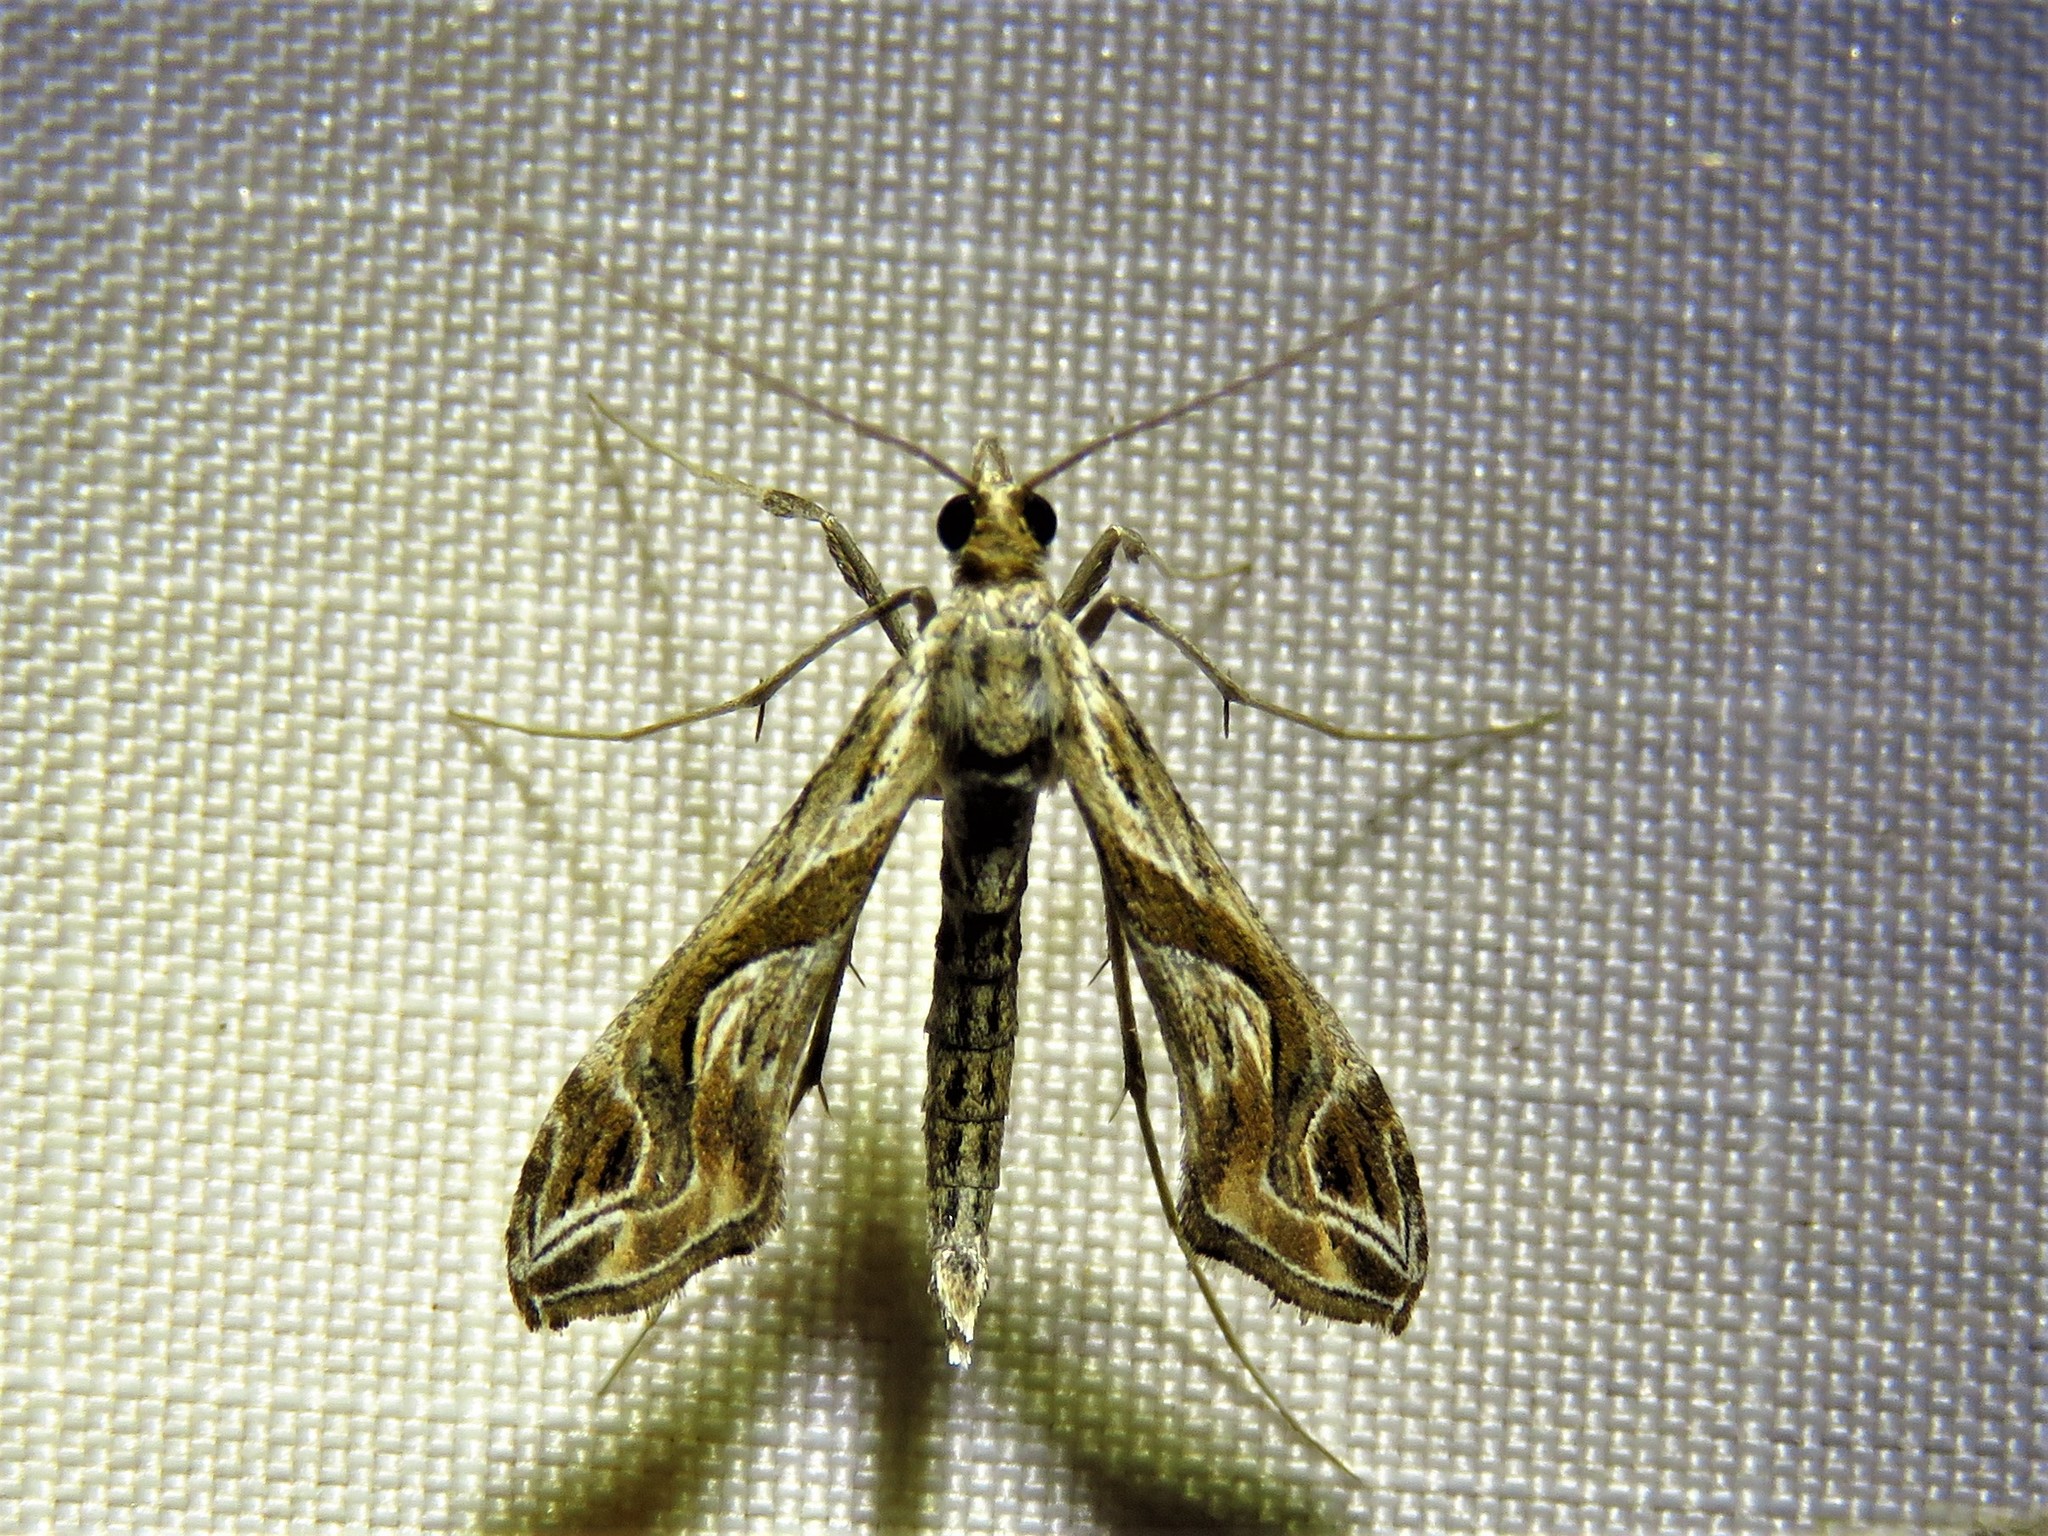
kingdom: Animalia
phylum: Arthropoda
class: Insecta
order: Lepidoptera
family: Crambidae
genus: Lineodes
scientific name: Lineodes integra
